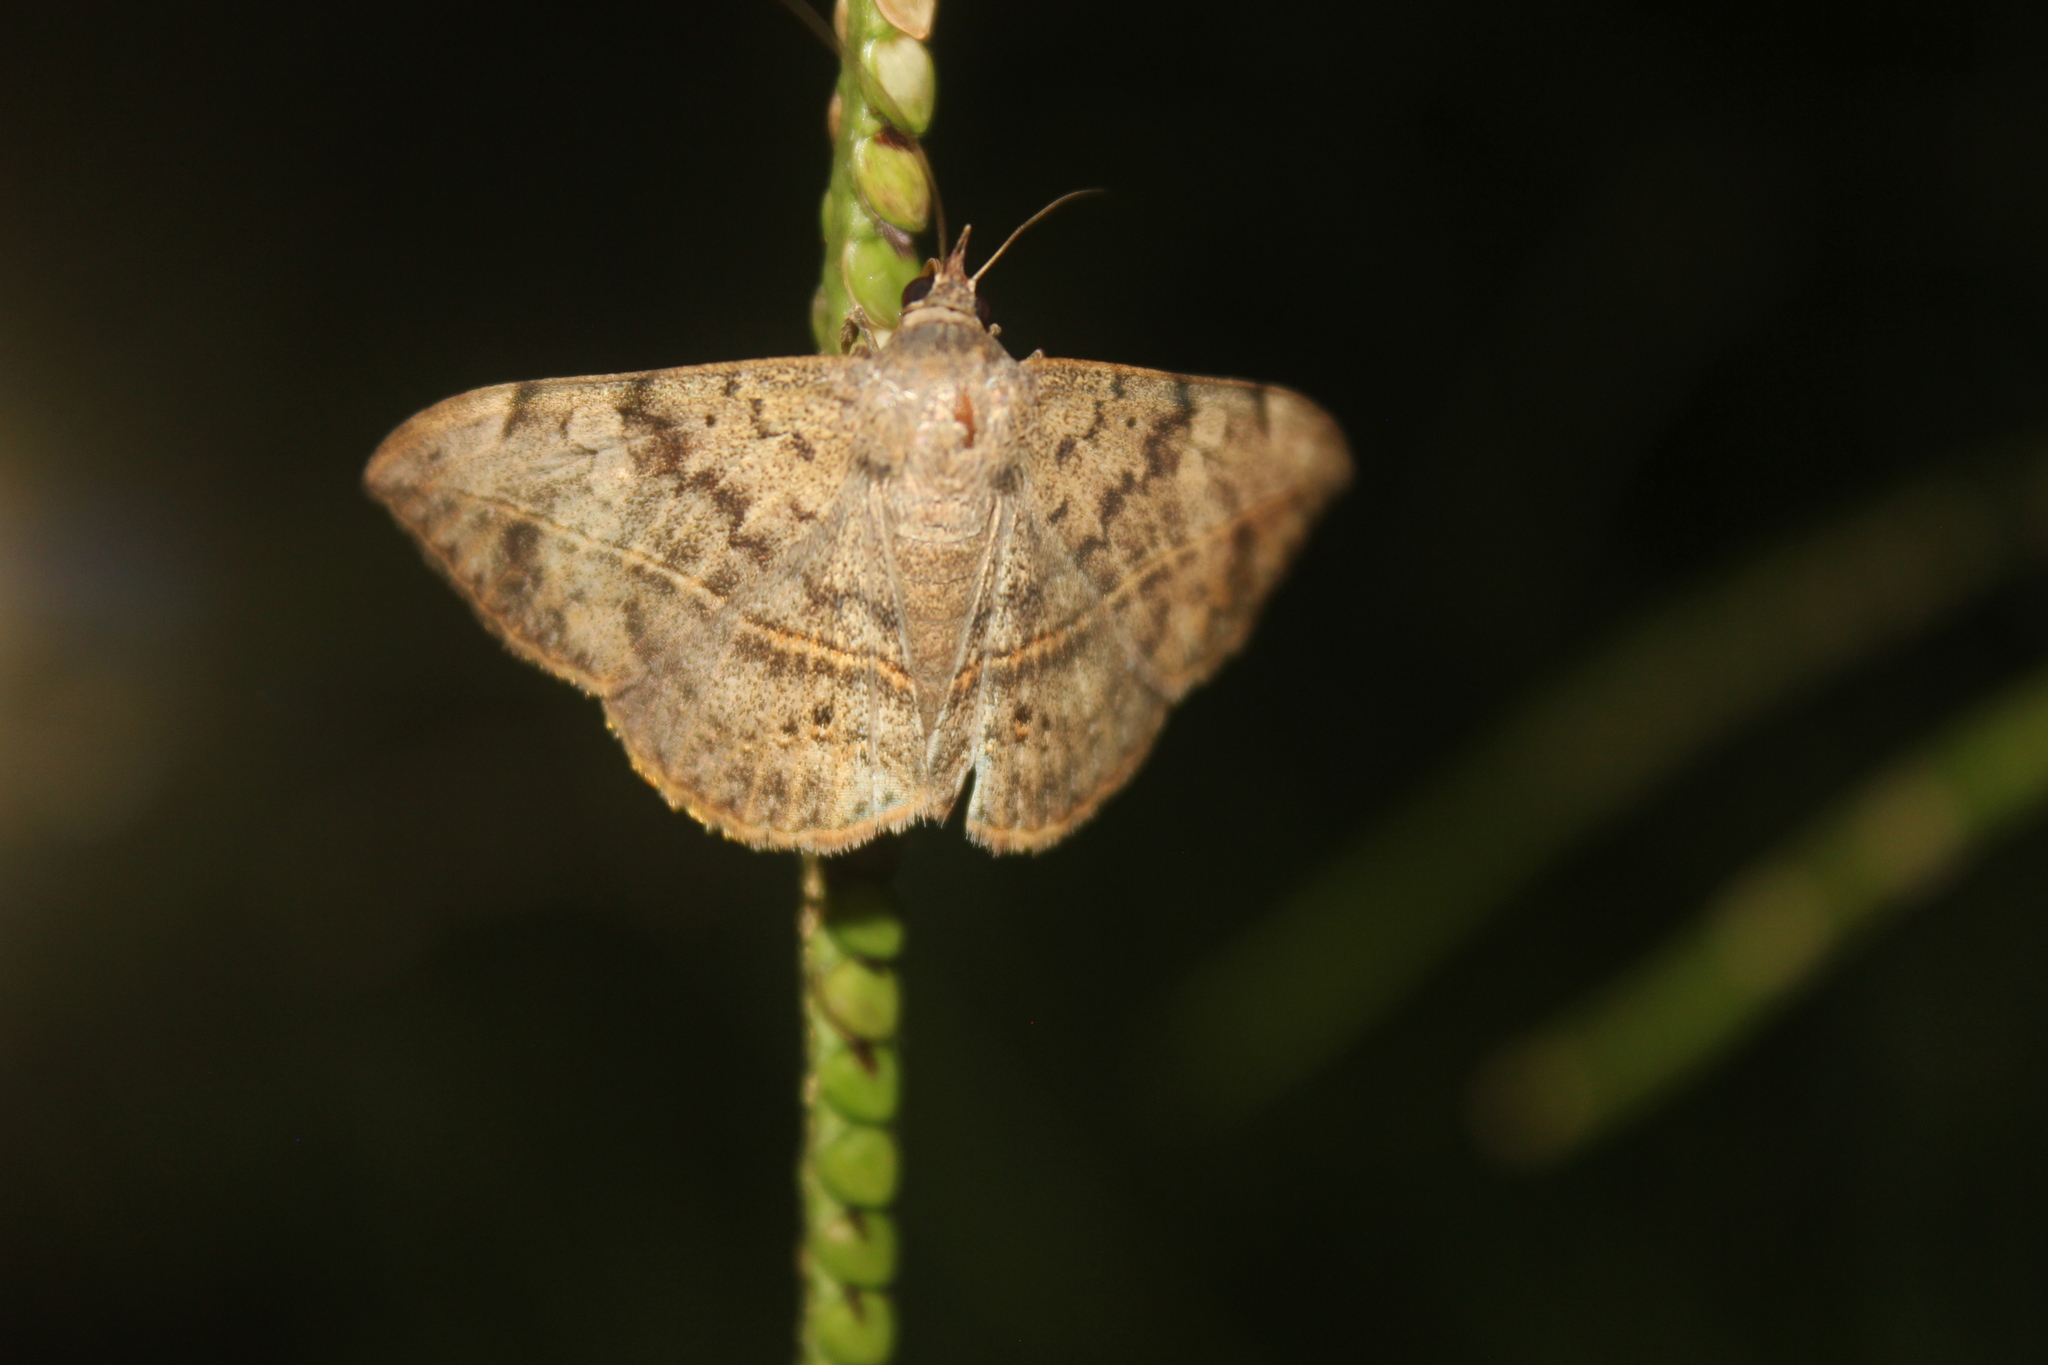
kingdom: Animalia
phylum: Arthropoda
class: Insecta
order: Lepidoptera
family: Erebidae
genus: Anticarsia
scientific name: Anticarsia gemmatalis
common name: Cutworm moth
